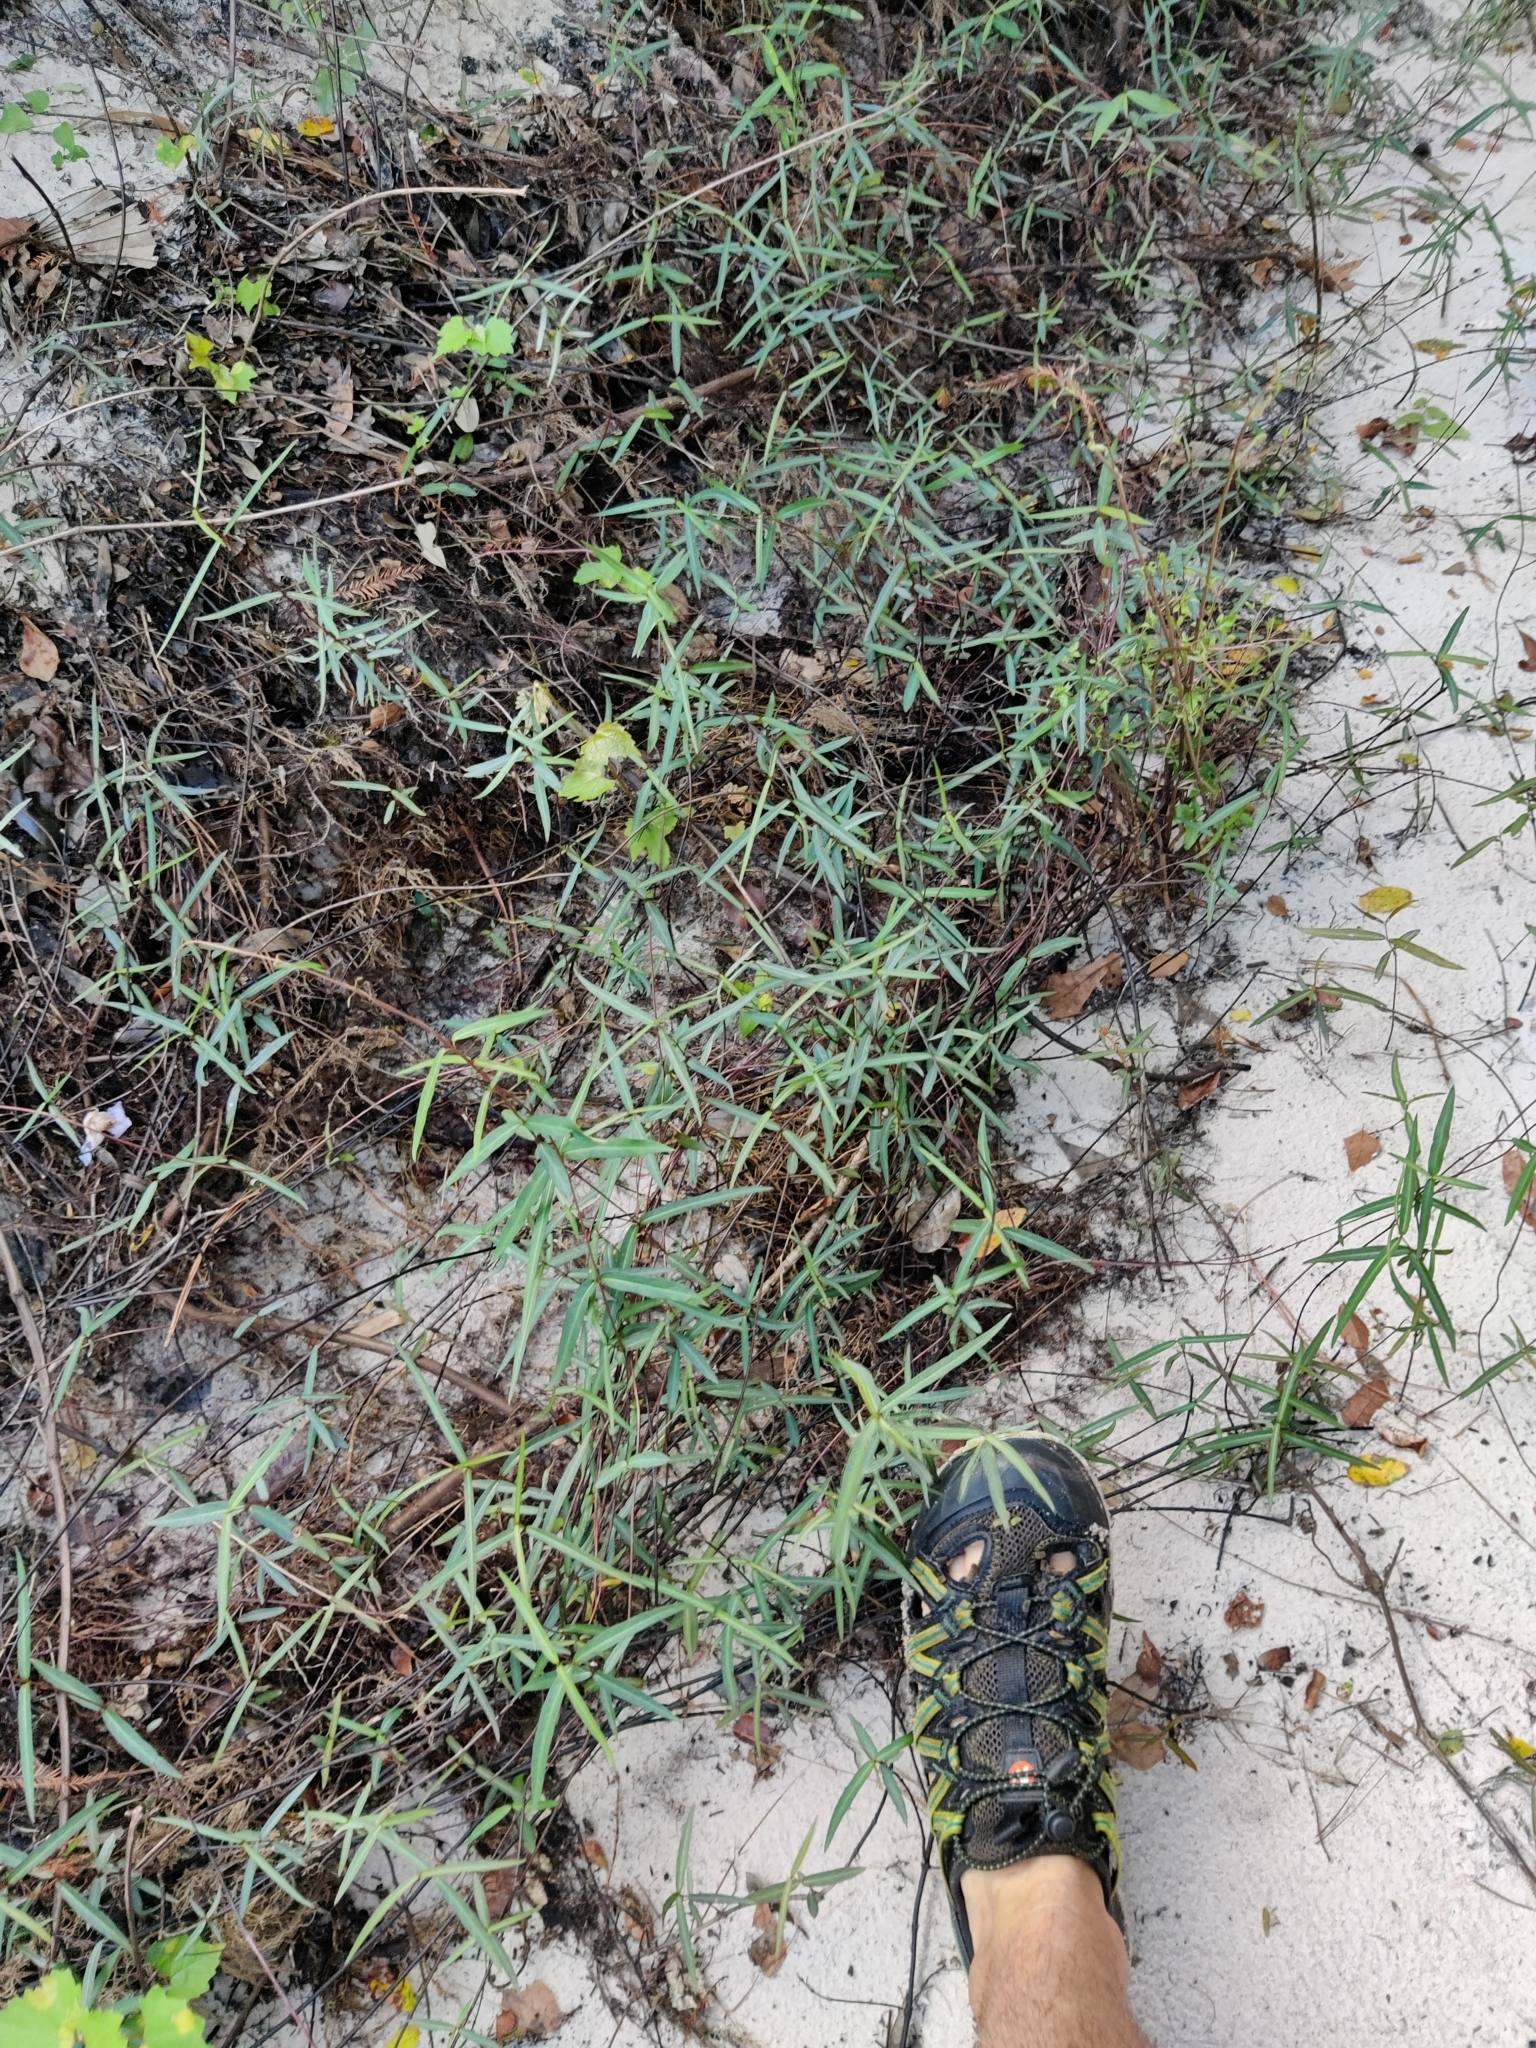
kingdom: Plantae
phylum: Tracheophyta
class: Magnoliopsida
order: Gentianales
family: Apocynaceae
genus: Thyrsanthella
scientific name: Thyrsanthella difformis
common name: Climbing dogbane
